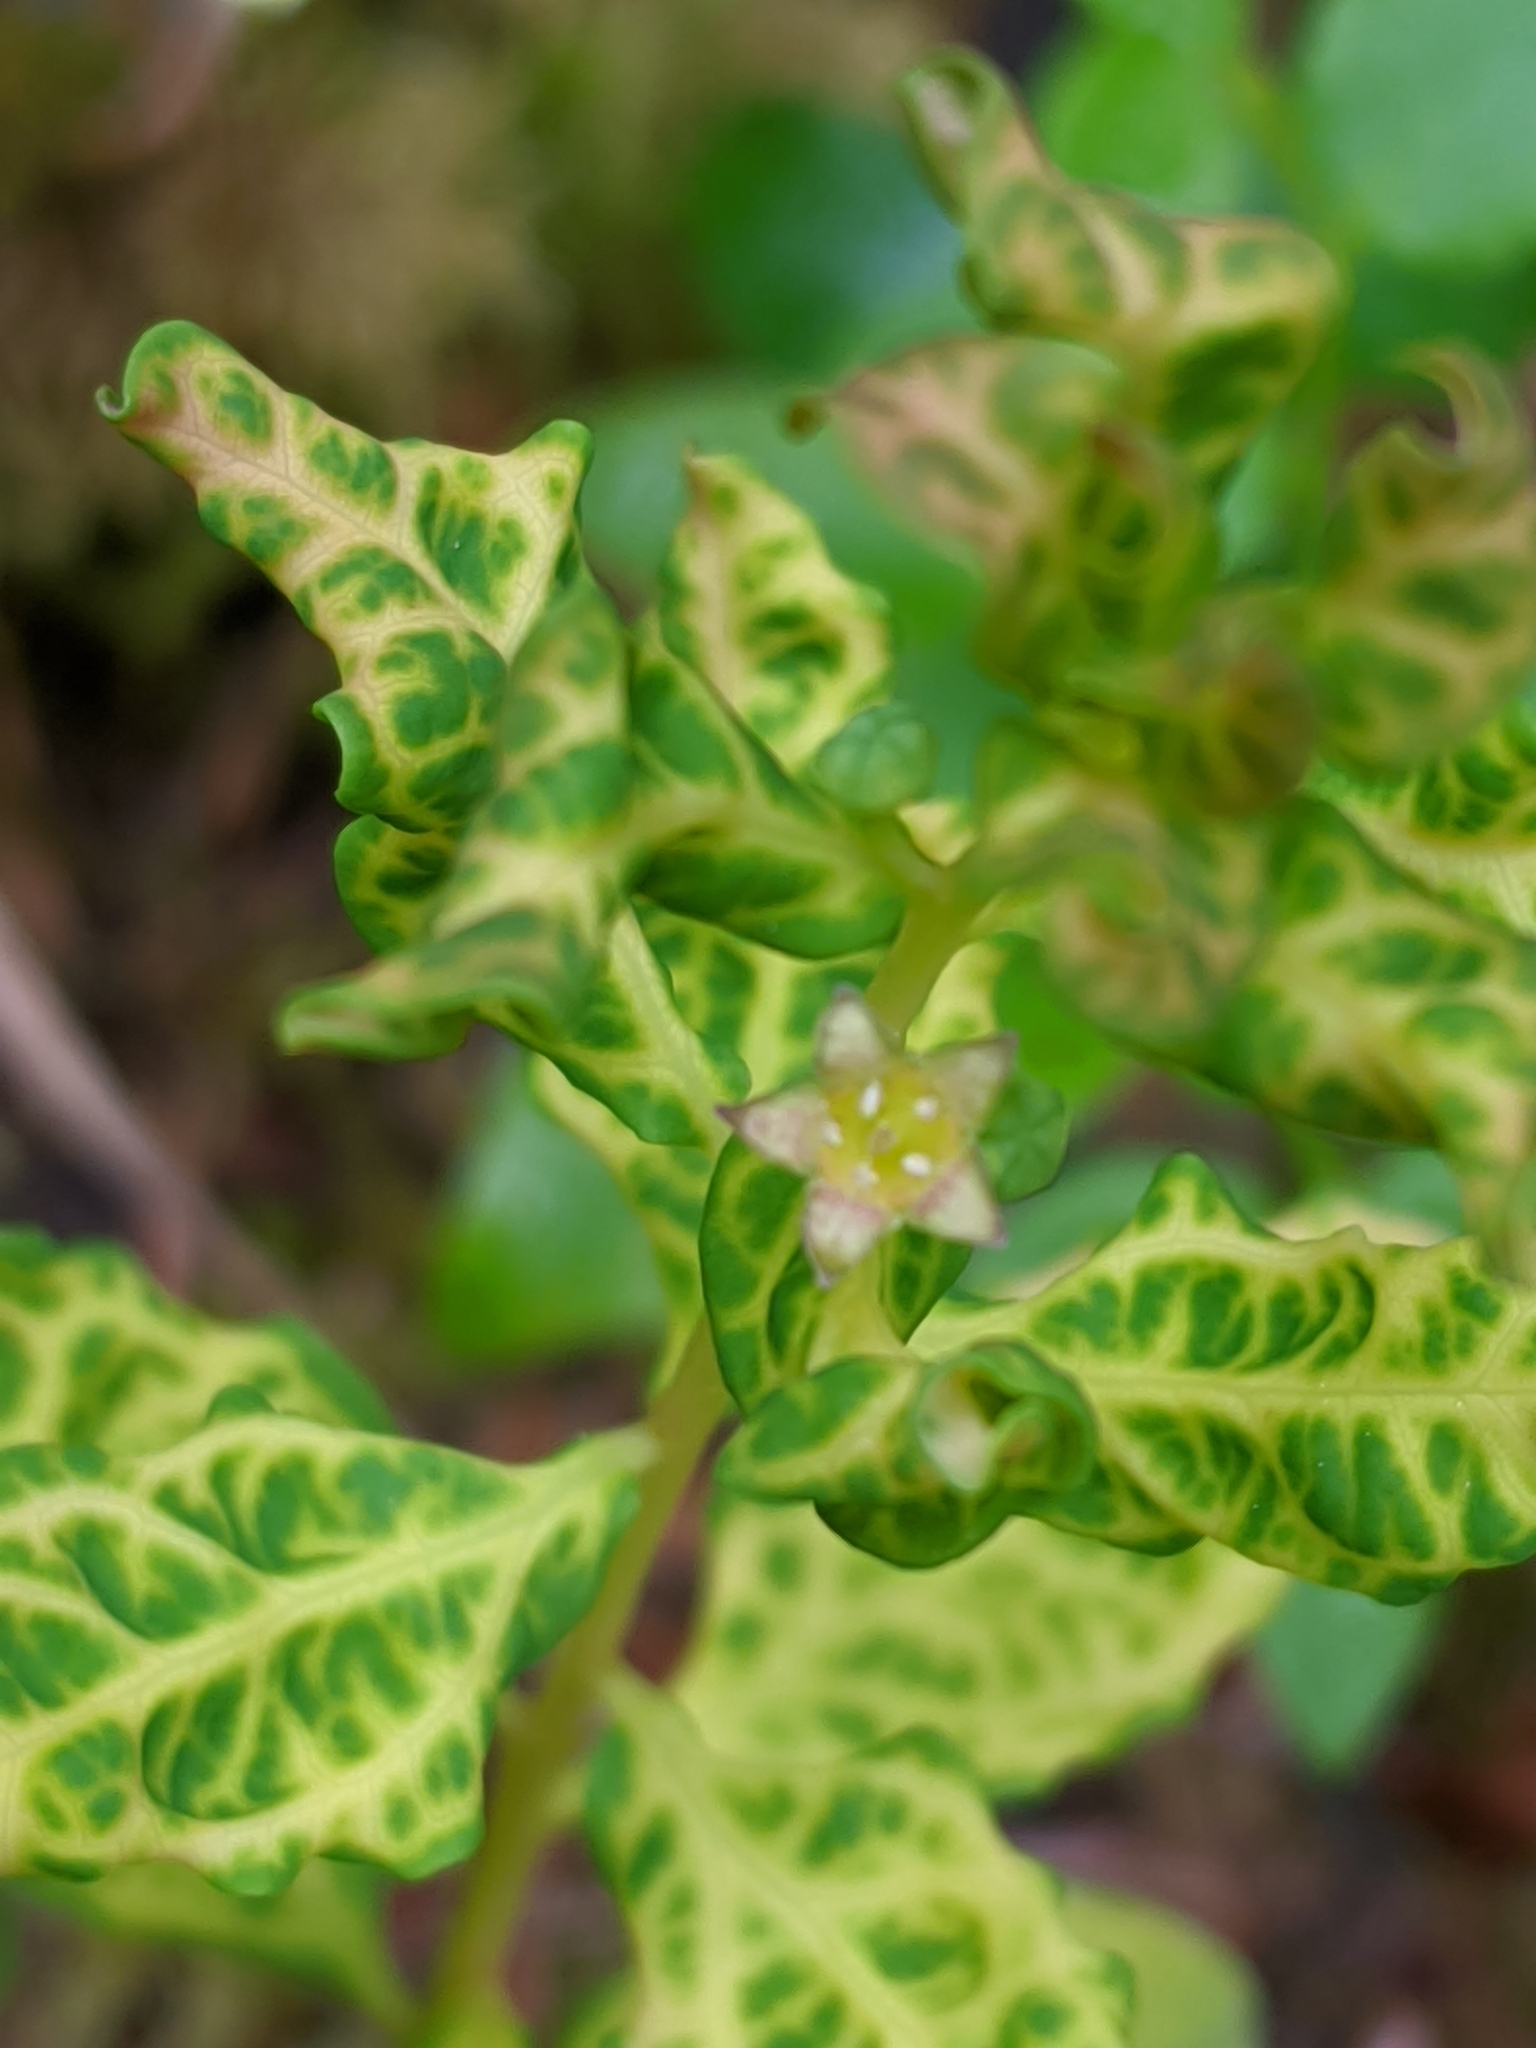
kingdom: Plantae
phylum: Tracheophyta
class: Magnoliopsida
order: Santalales
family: Comandraceae
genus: Geocaulon
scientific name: Geocaulon lividum
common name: Earthberry
